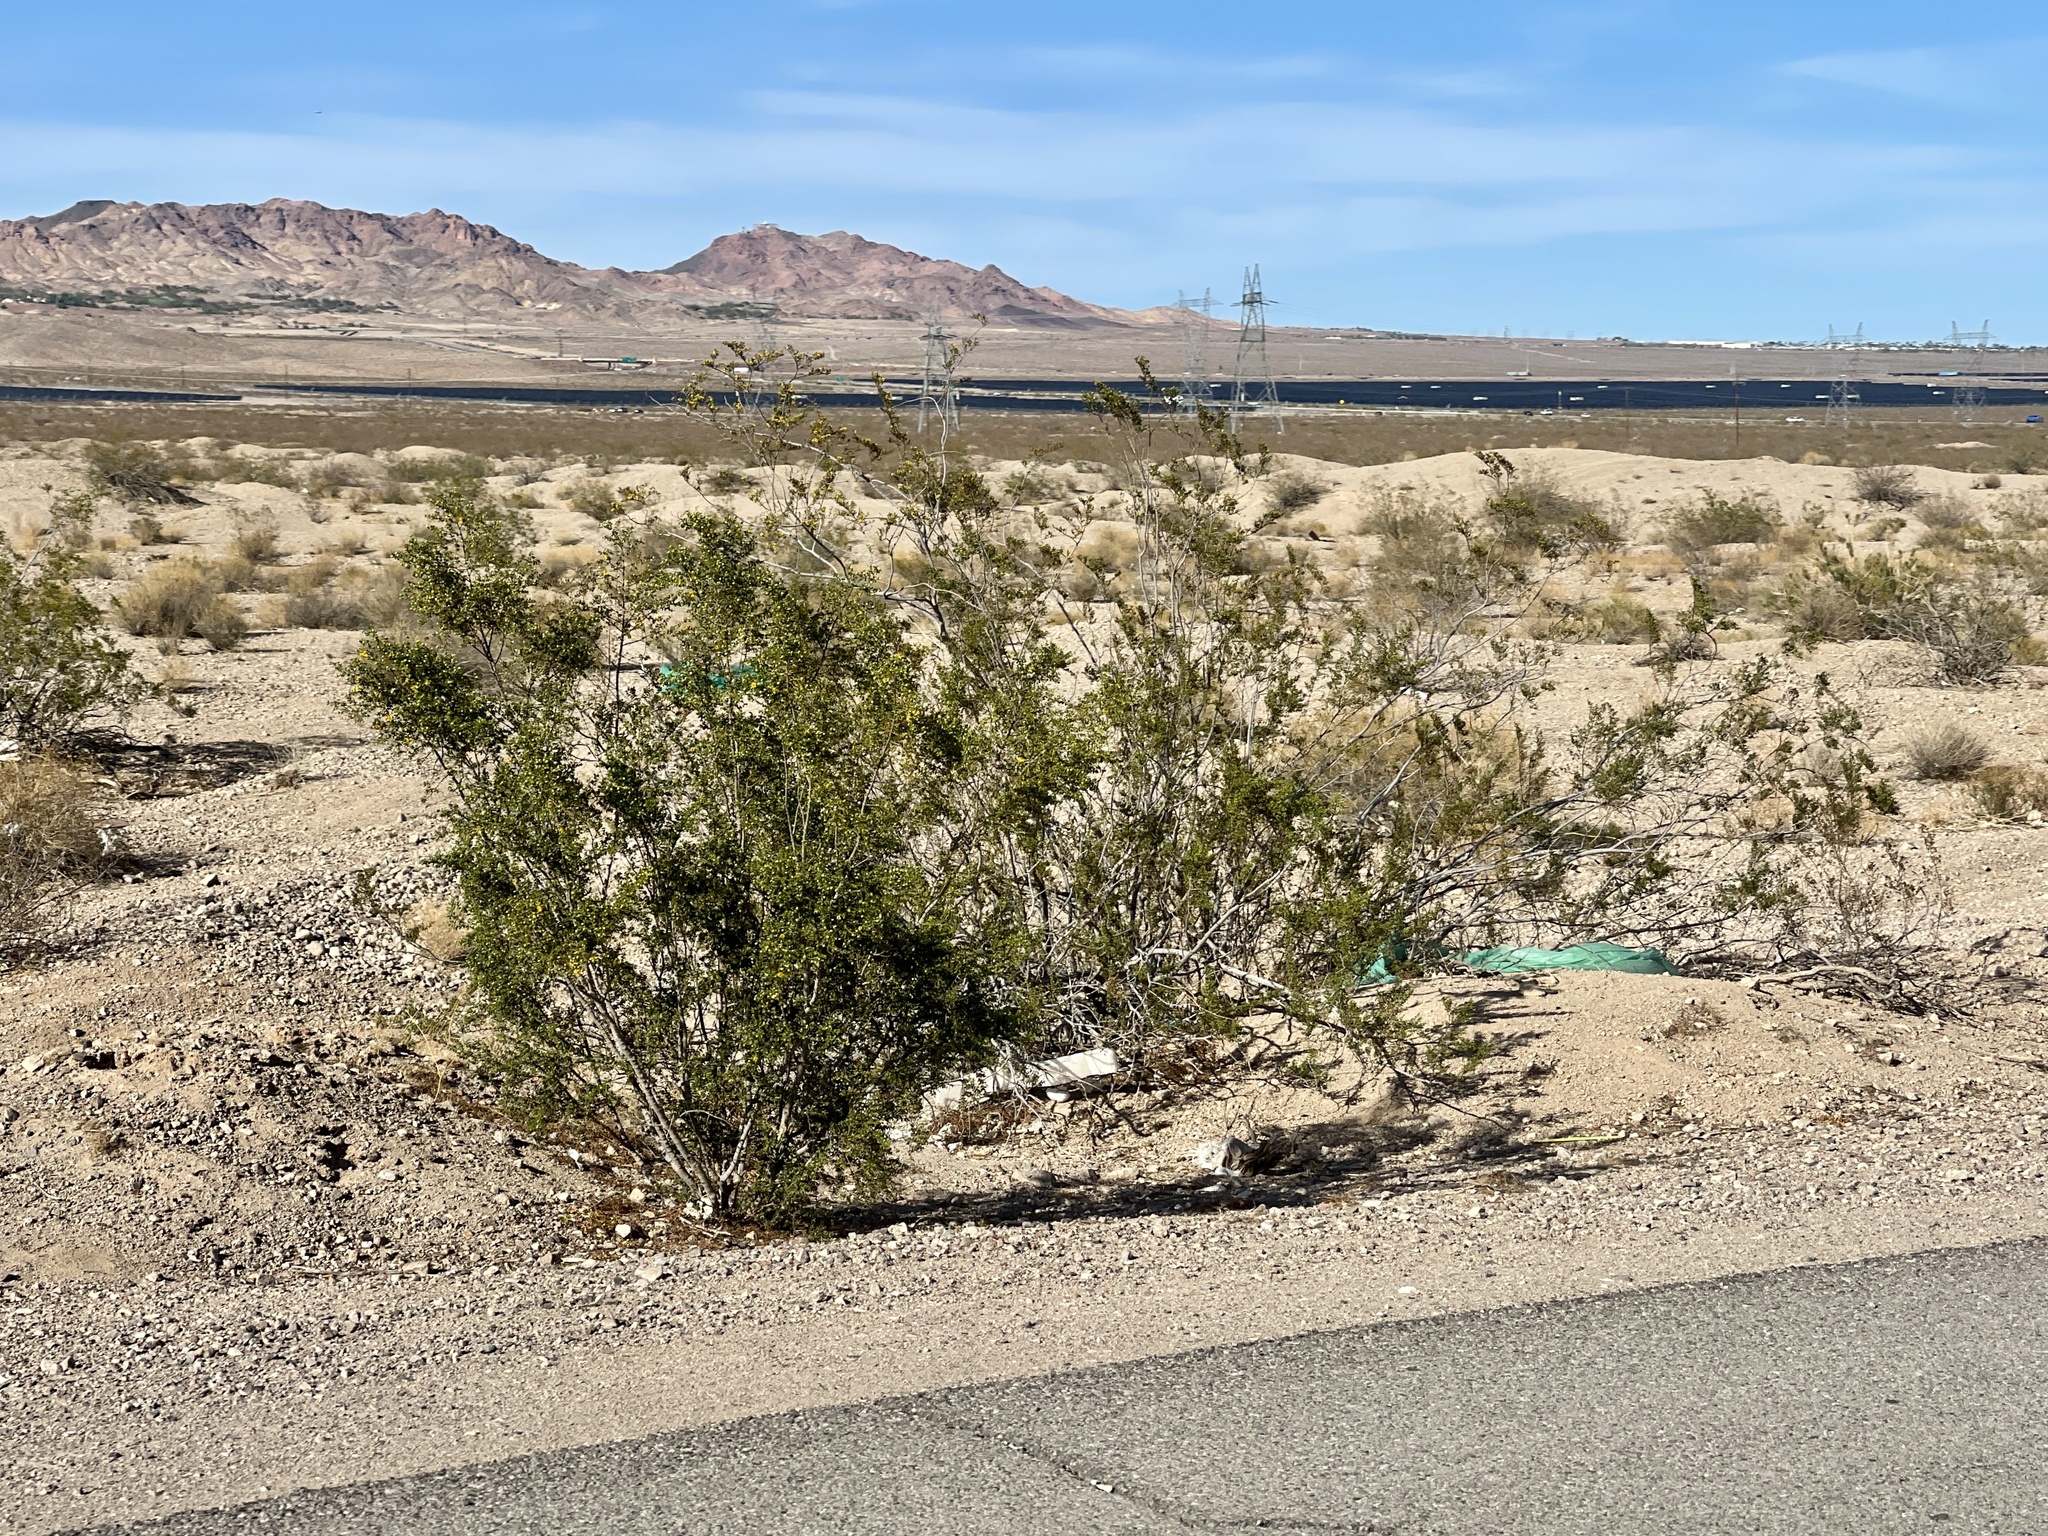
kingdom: Plantae
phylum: Tracheophyta
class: Magnoliopsida
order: Zygophyllales
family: Zygophyllaceae
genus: Larrea
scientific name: Larrea tridentata
